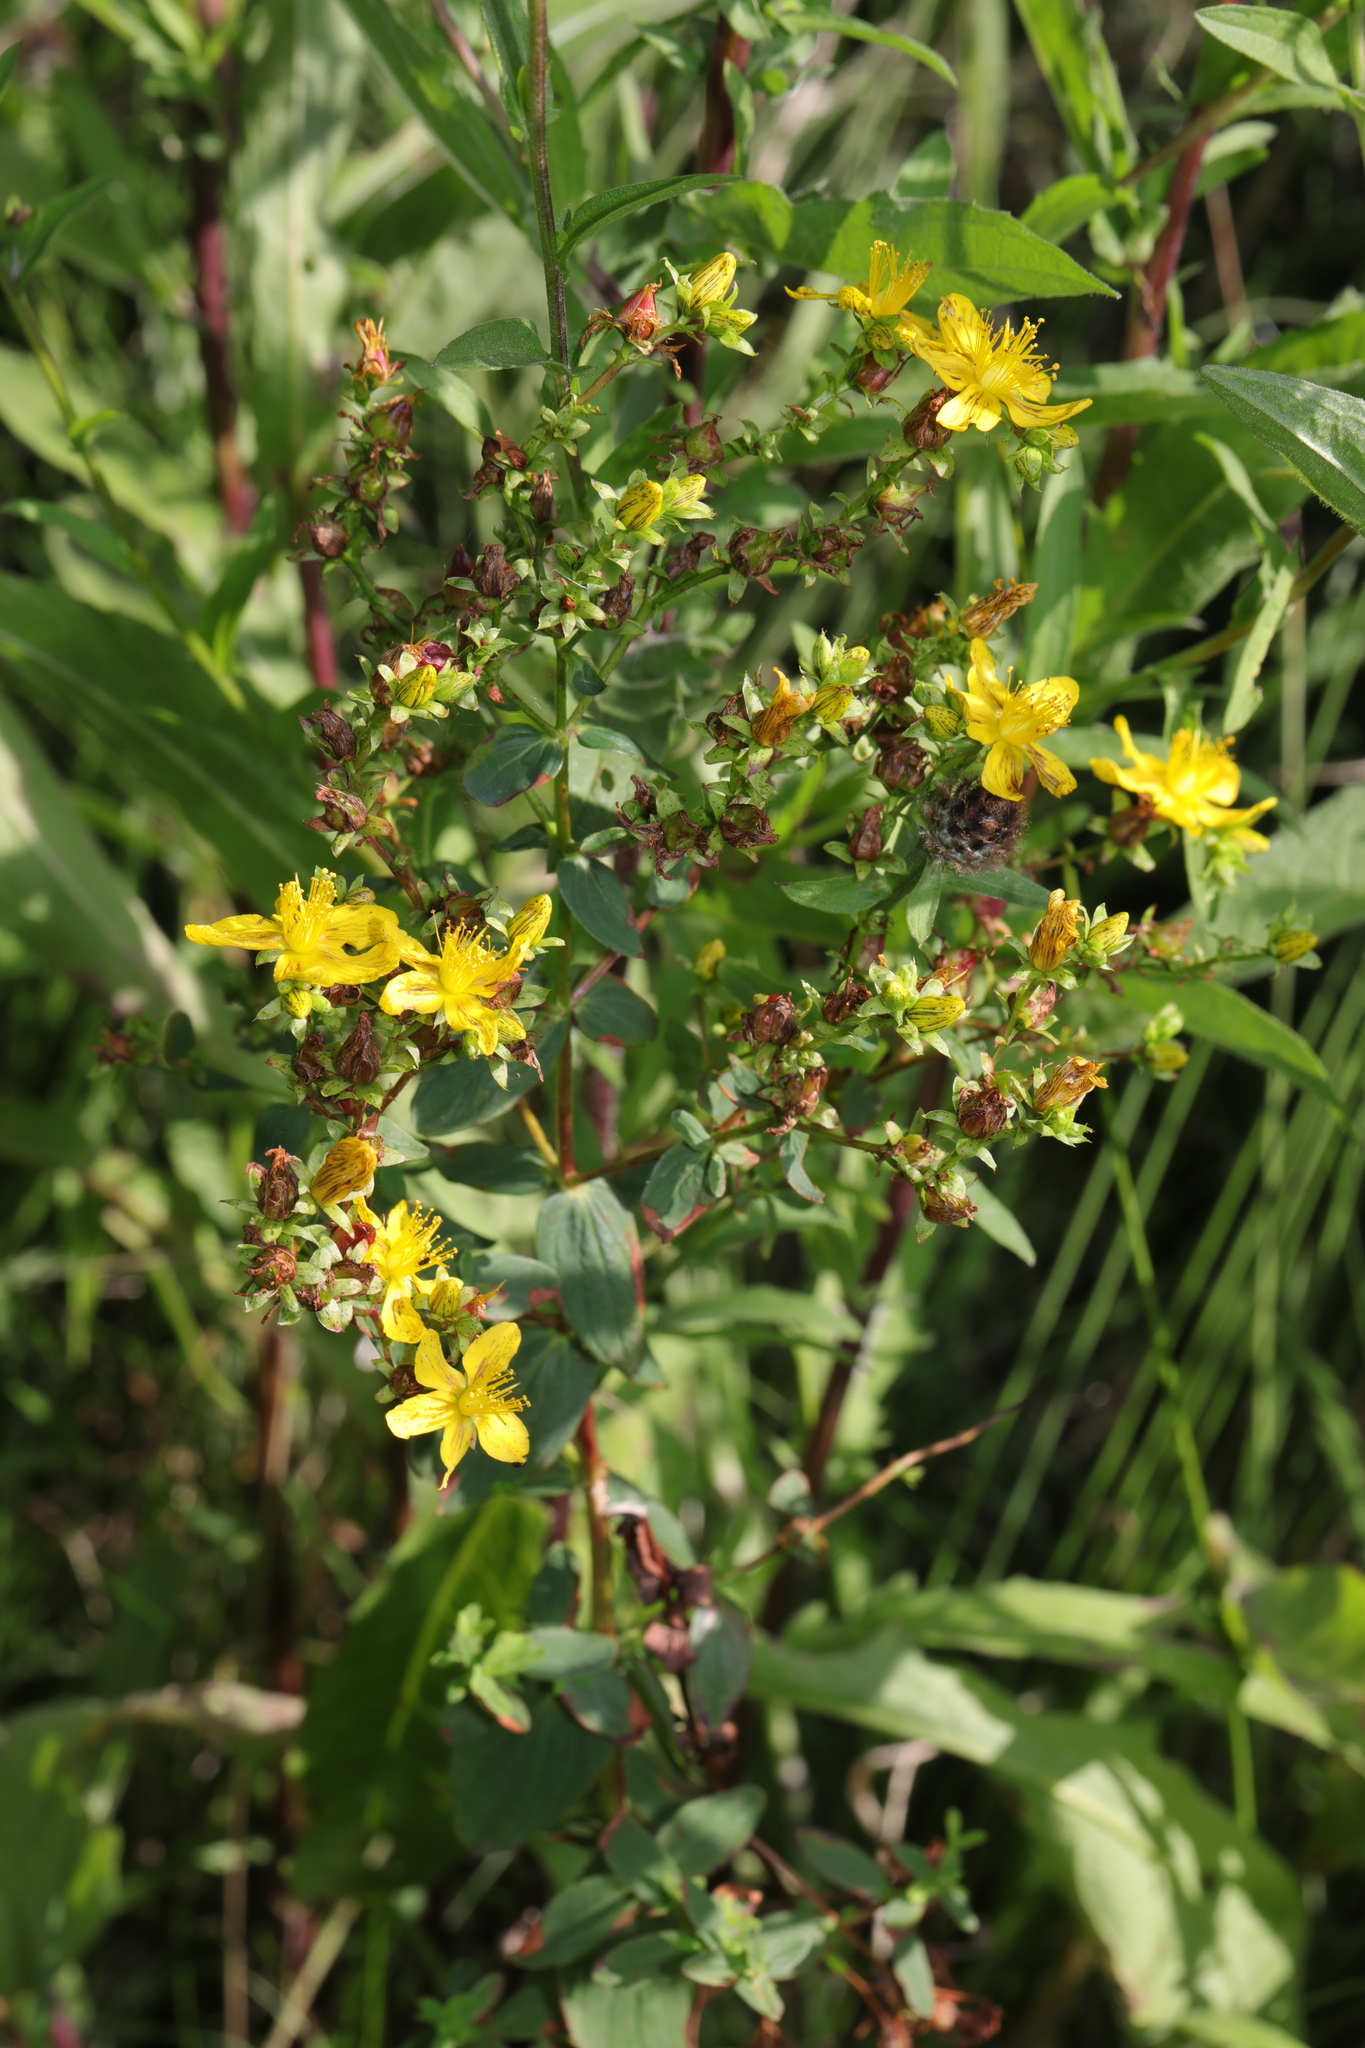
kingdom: Plantae
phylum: Tracheophyta
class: Magnoliopsida
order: Malpighiales
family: Hypericaceae
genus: Hypericum
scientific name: Hypericum perforatum
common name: Common st. johnswort
